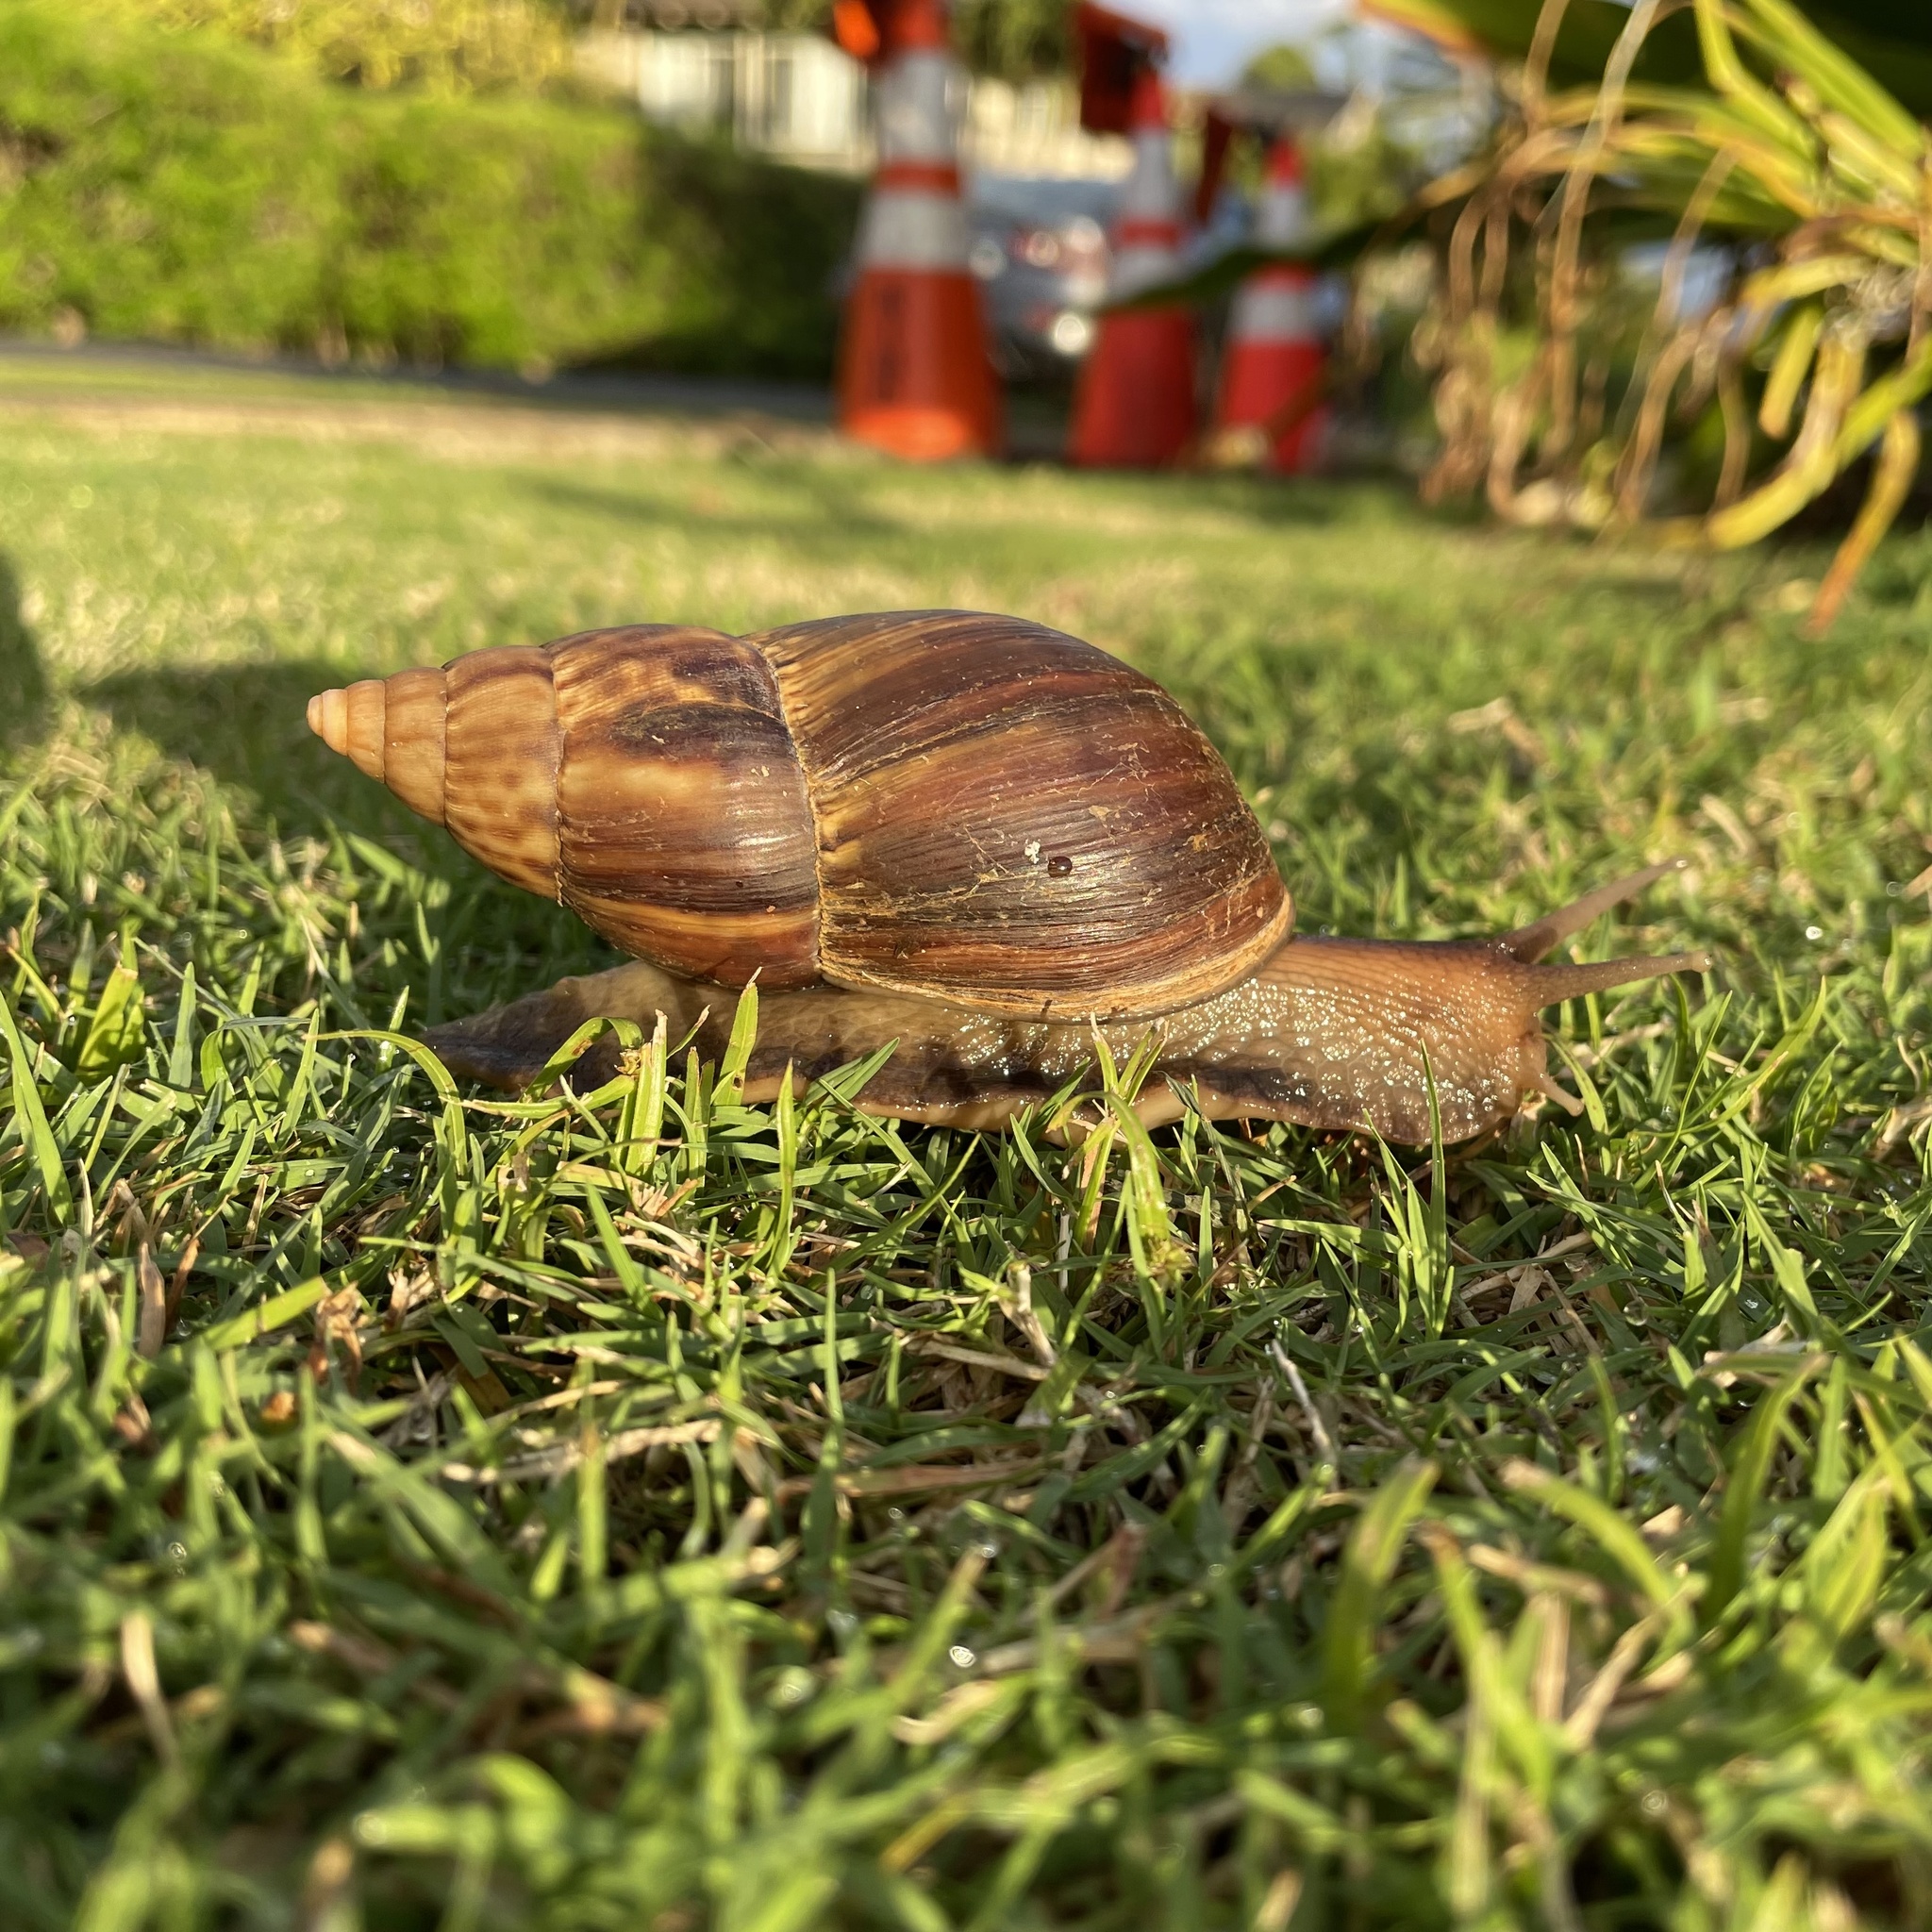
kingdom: Animalia
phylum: Mollusca
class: Gastropoda
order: Stylommatophora
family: Achatinidae
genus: Lissachatina
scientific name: Lissachatina fulica
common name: Giant african snail
